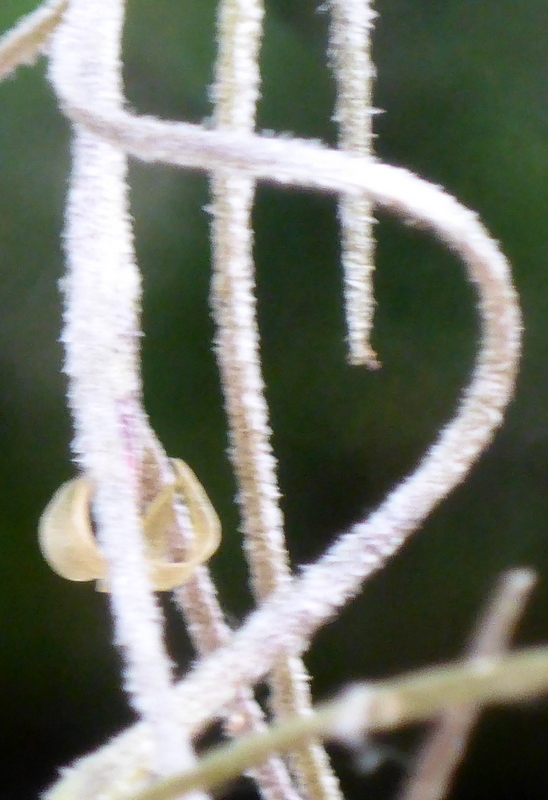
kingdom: Plantae
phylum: Tracheophyta
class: Liliopsida
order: Poales
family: Bromeliaceae
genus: Tillandsia
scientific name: Tillandsia usneoides
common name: Spanish moss
